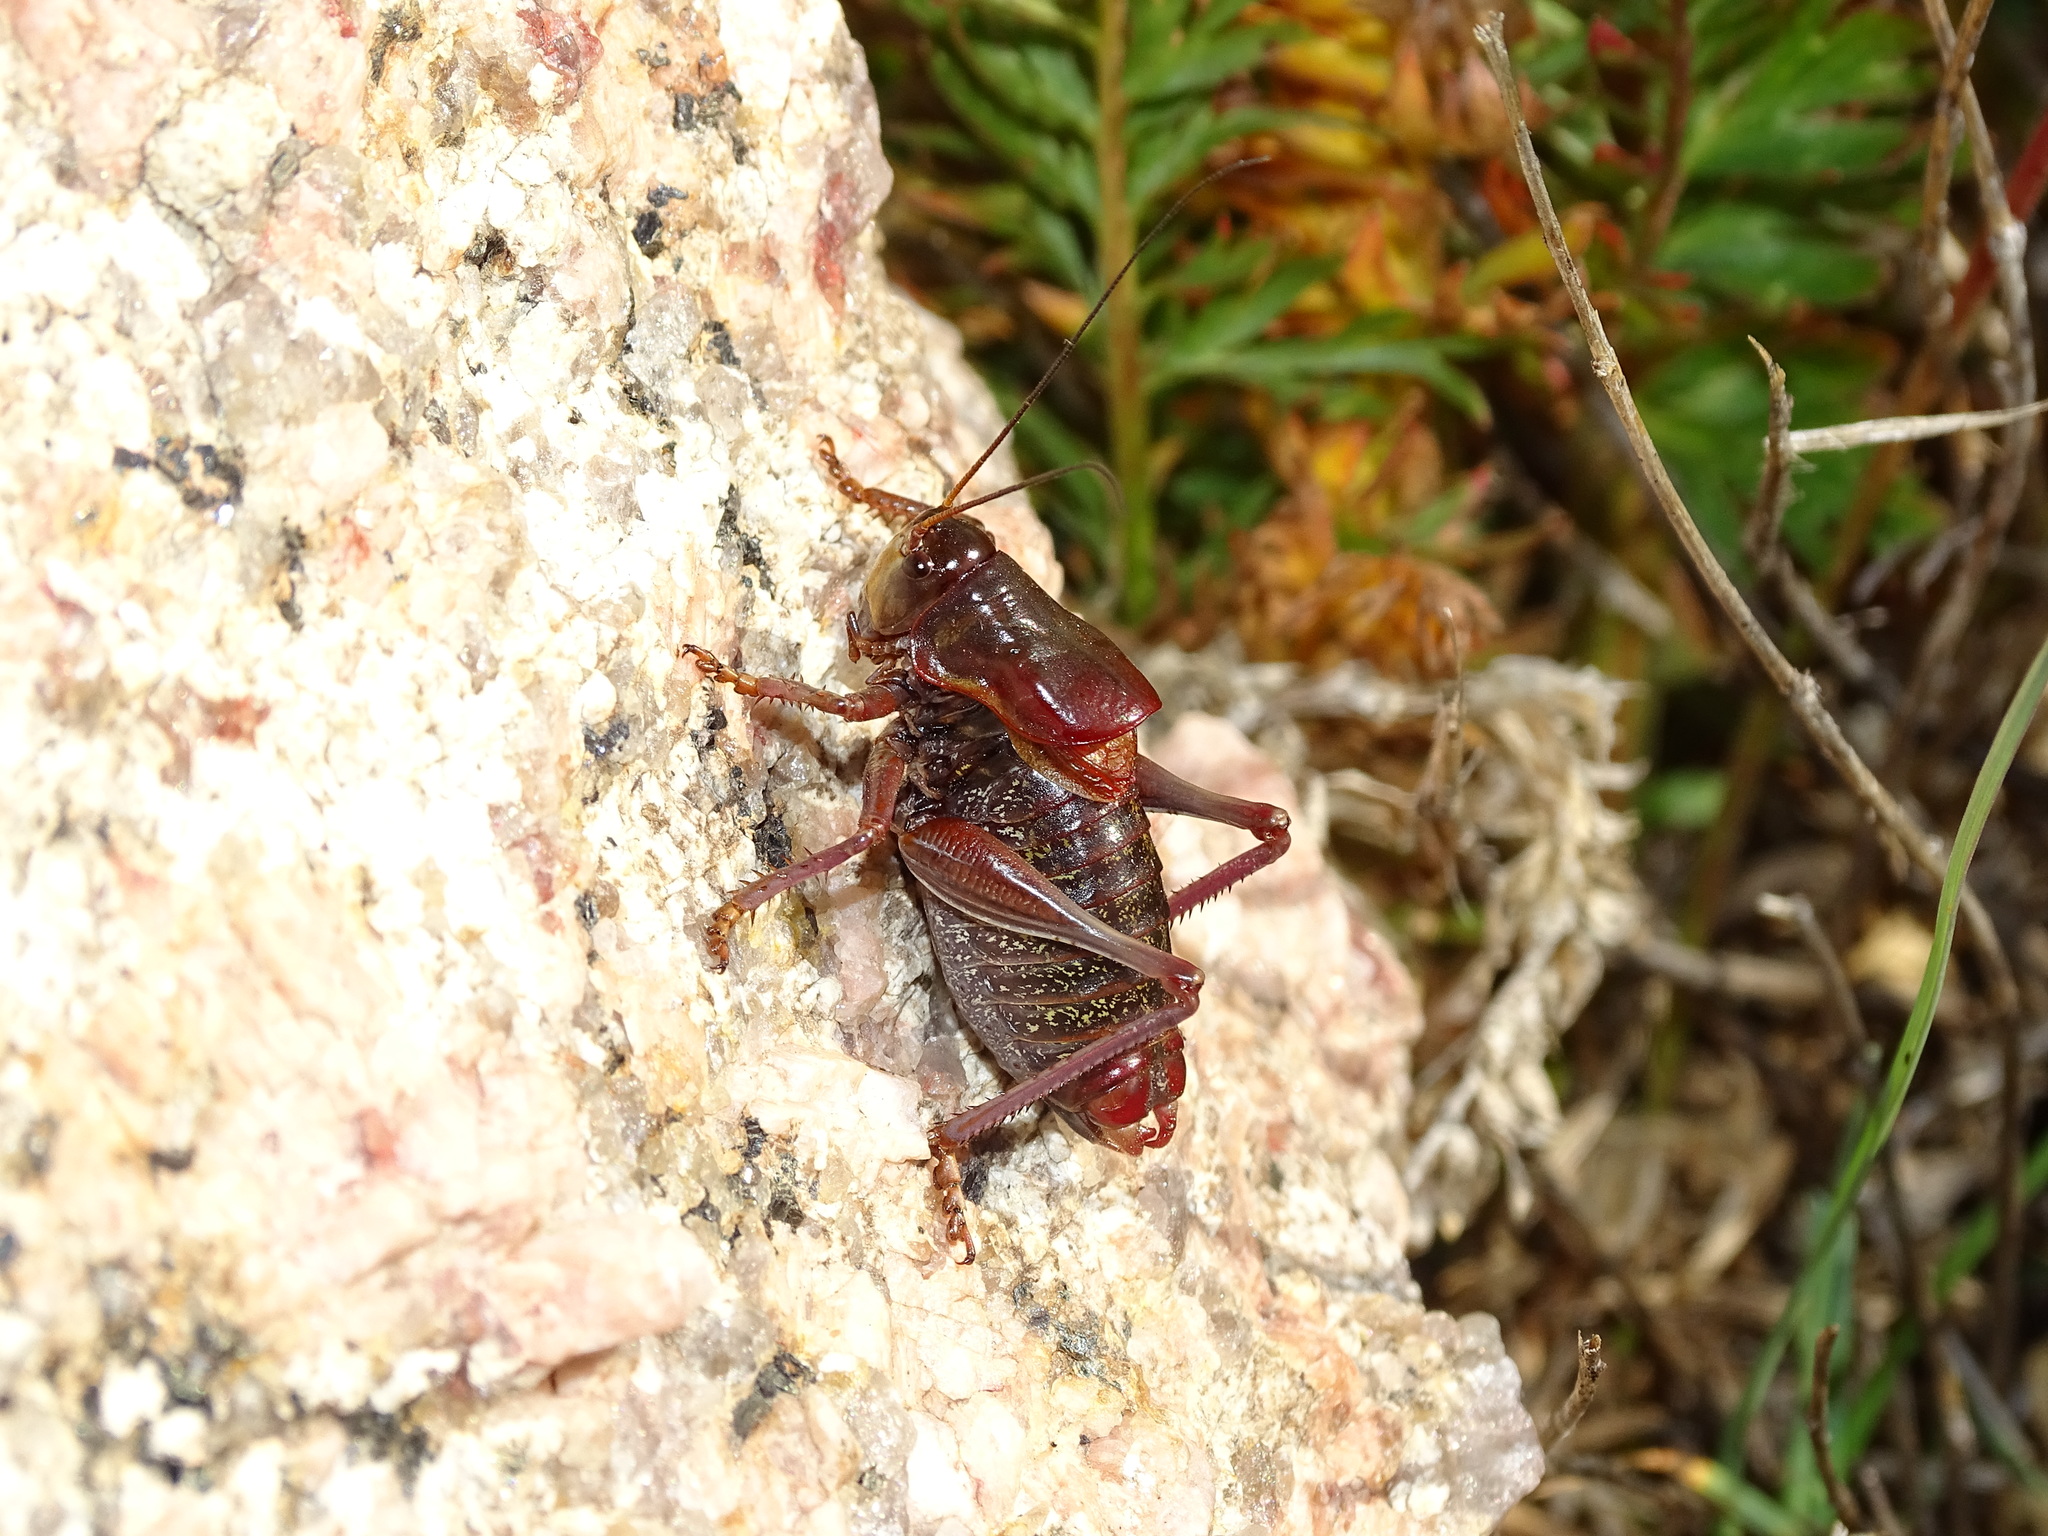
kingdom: Animalia
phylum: Arthropoda
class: Insecta
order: Orthoptera
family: Tettigoniidae
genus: Anabrus
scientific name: Anabrus simplex
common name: Mormon cricket
